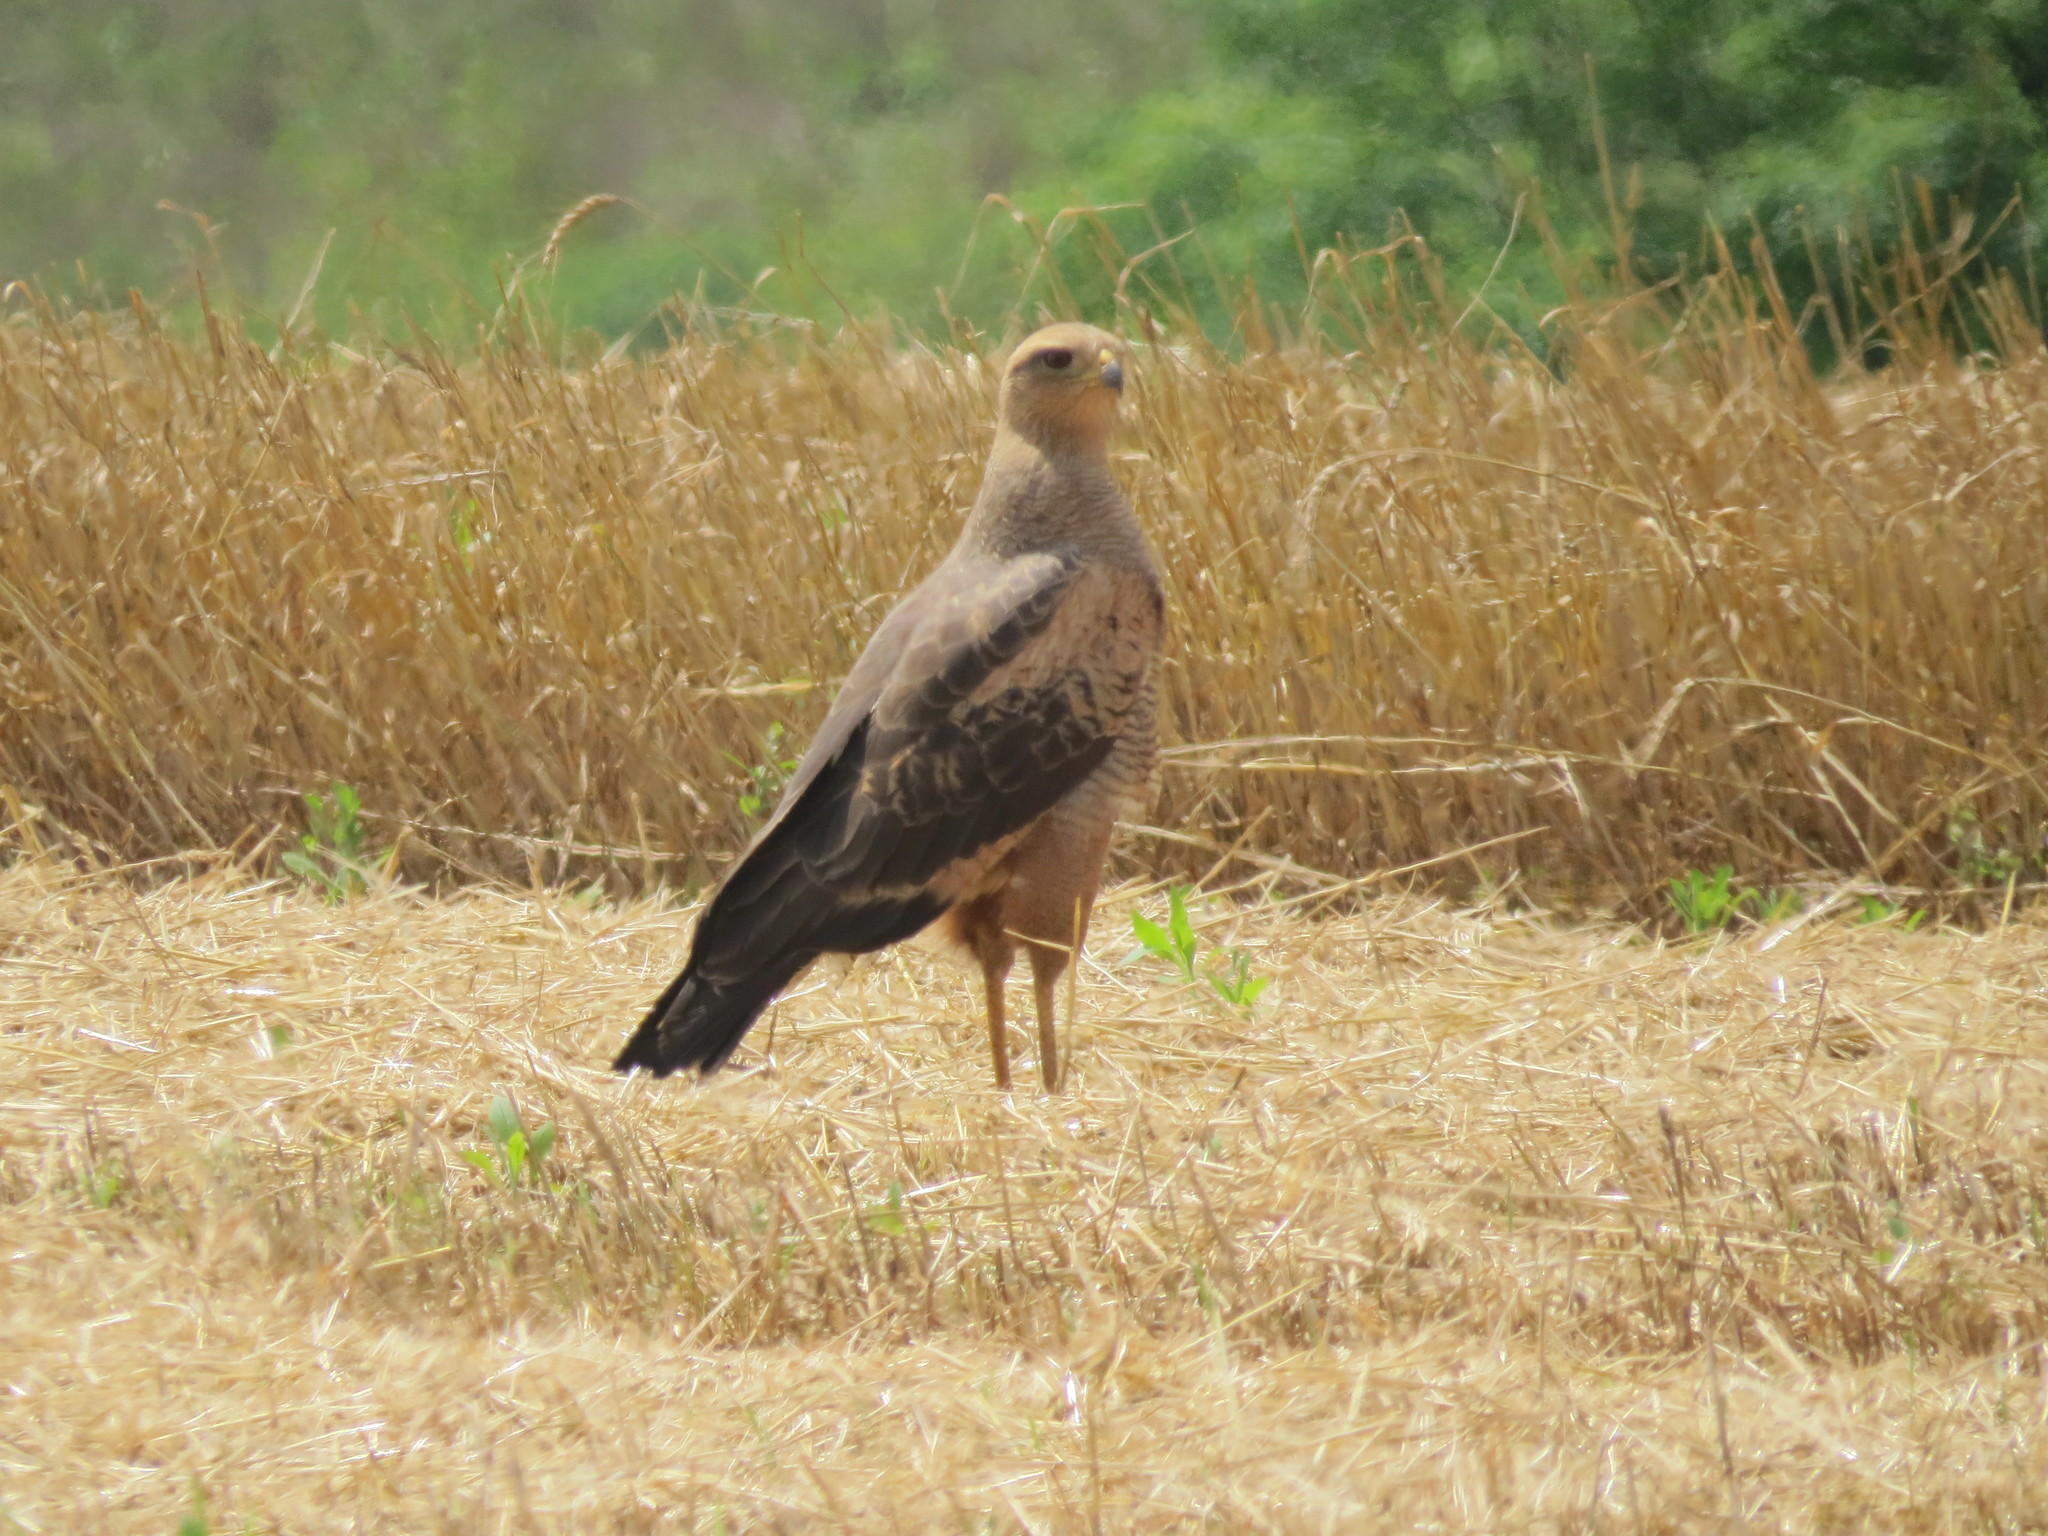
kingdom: Animalia
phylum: Chordata
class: Aves
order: Accipitriformes
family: Accipitridae
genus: Buteogallus
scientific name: Buteogallus meridionalis
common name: Savanna hawk
